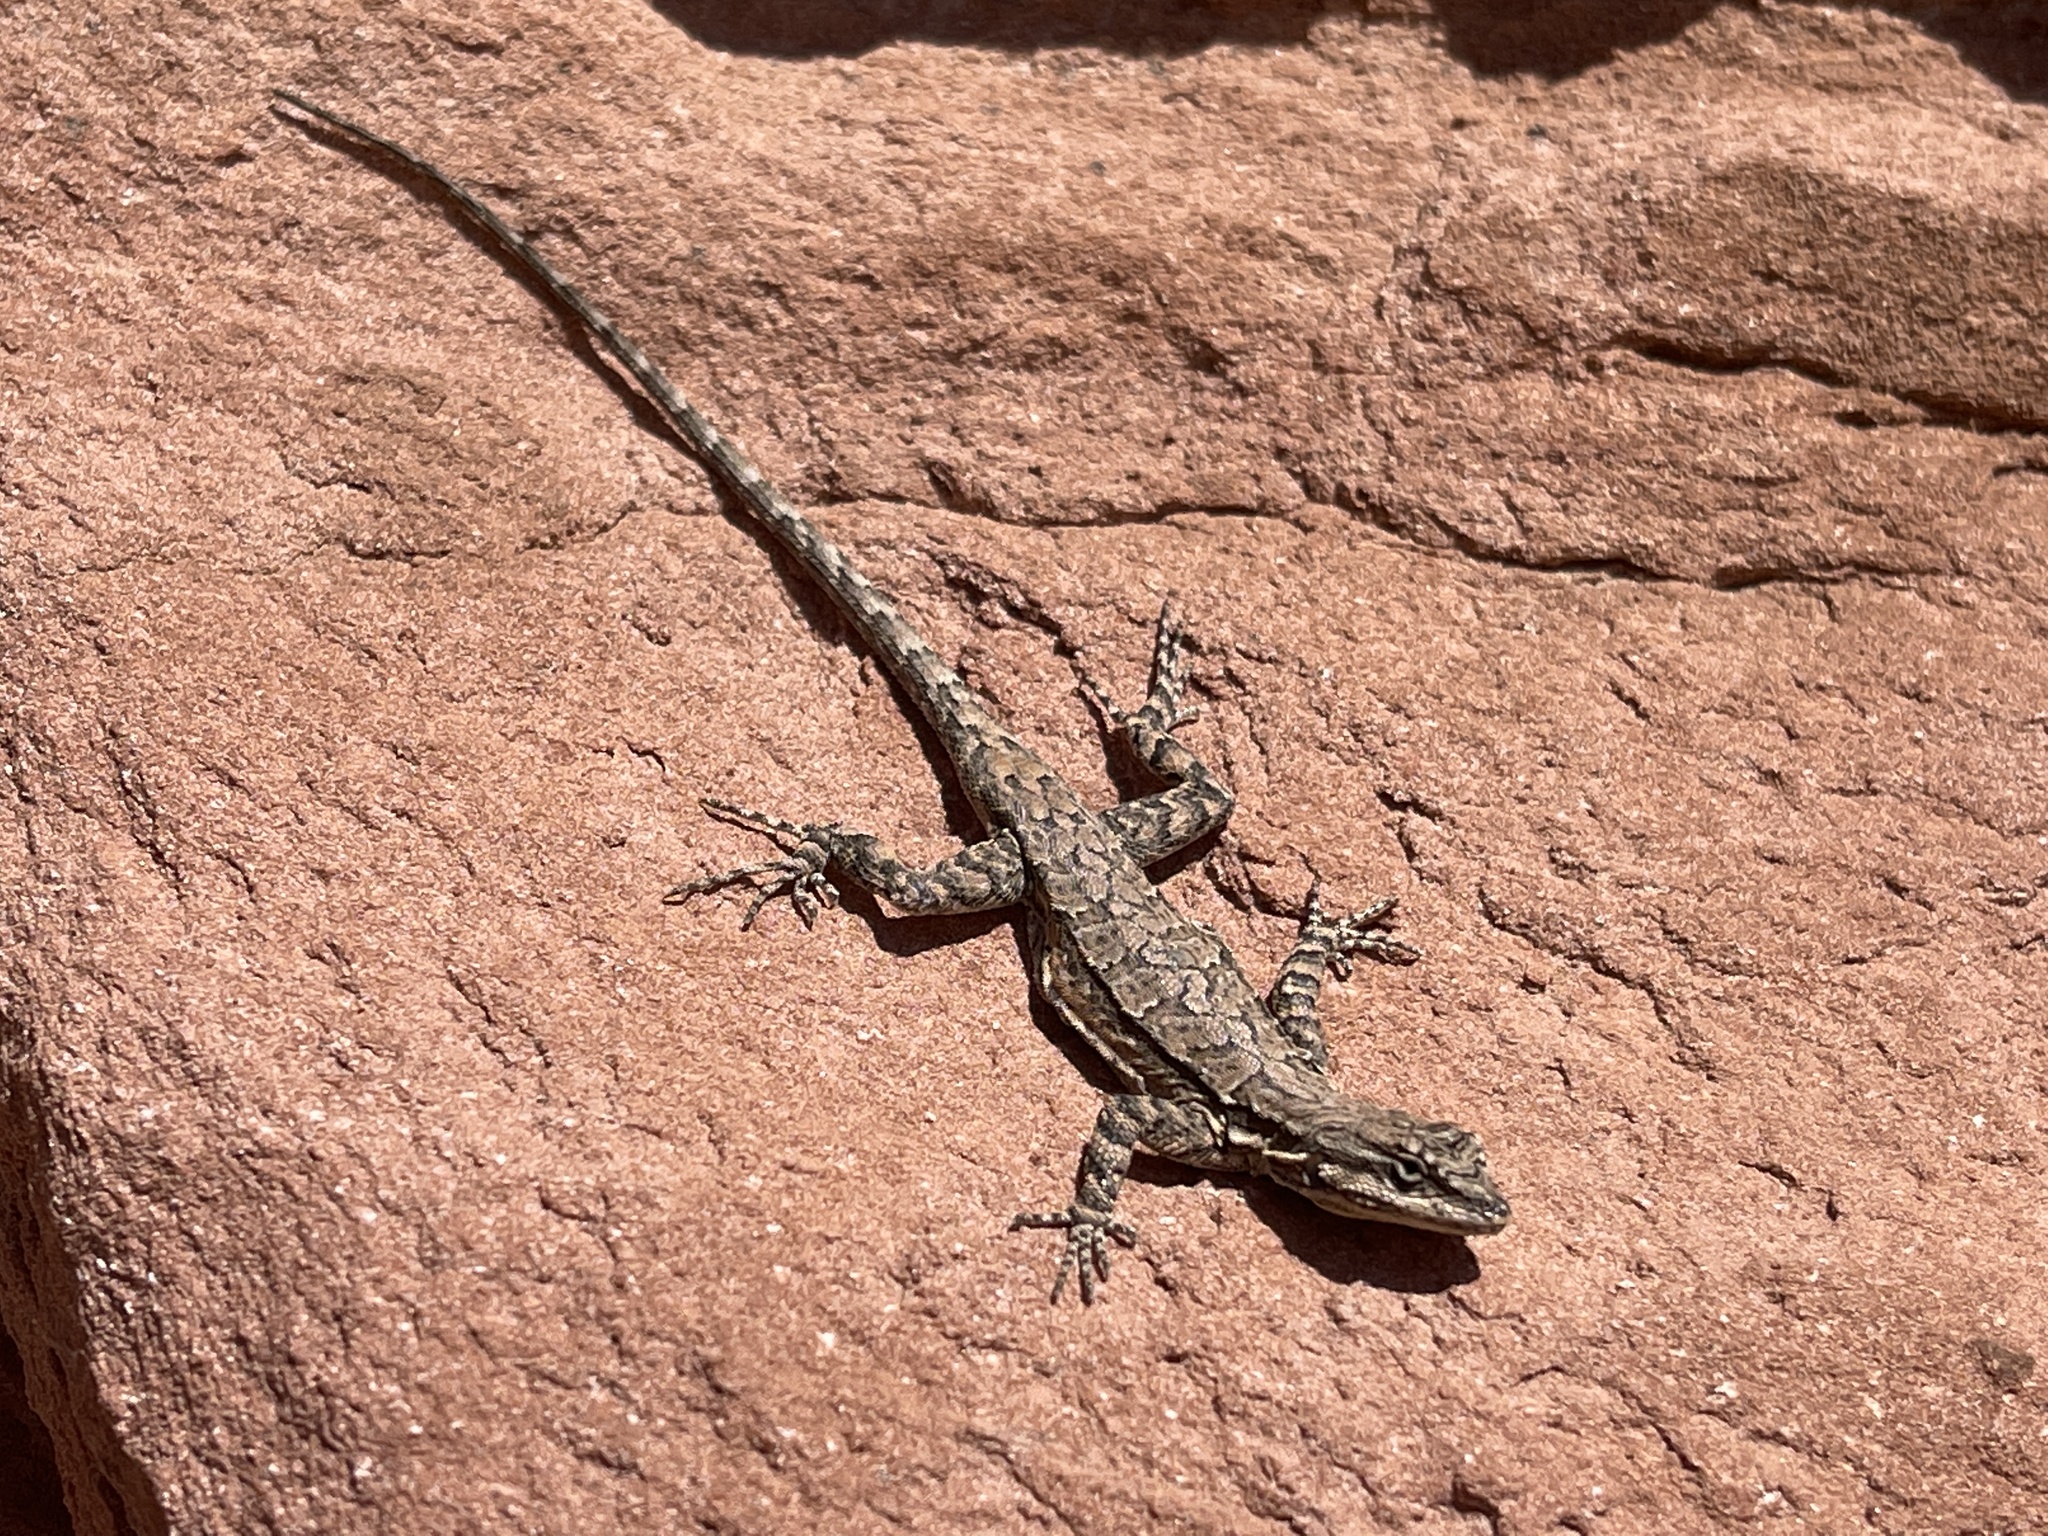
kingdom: Animalia
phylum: Chordata
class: Squamata
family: Phrynosomatidae
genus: Urosaurus
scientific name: Urosaurus ornatus
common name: Ornate tree lizard
